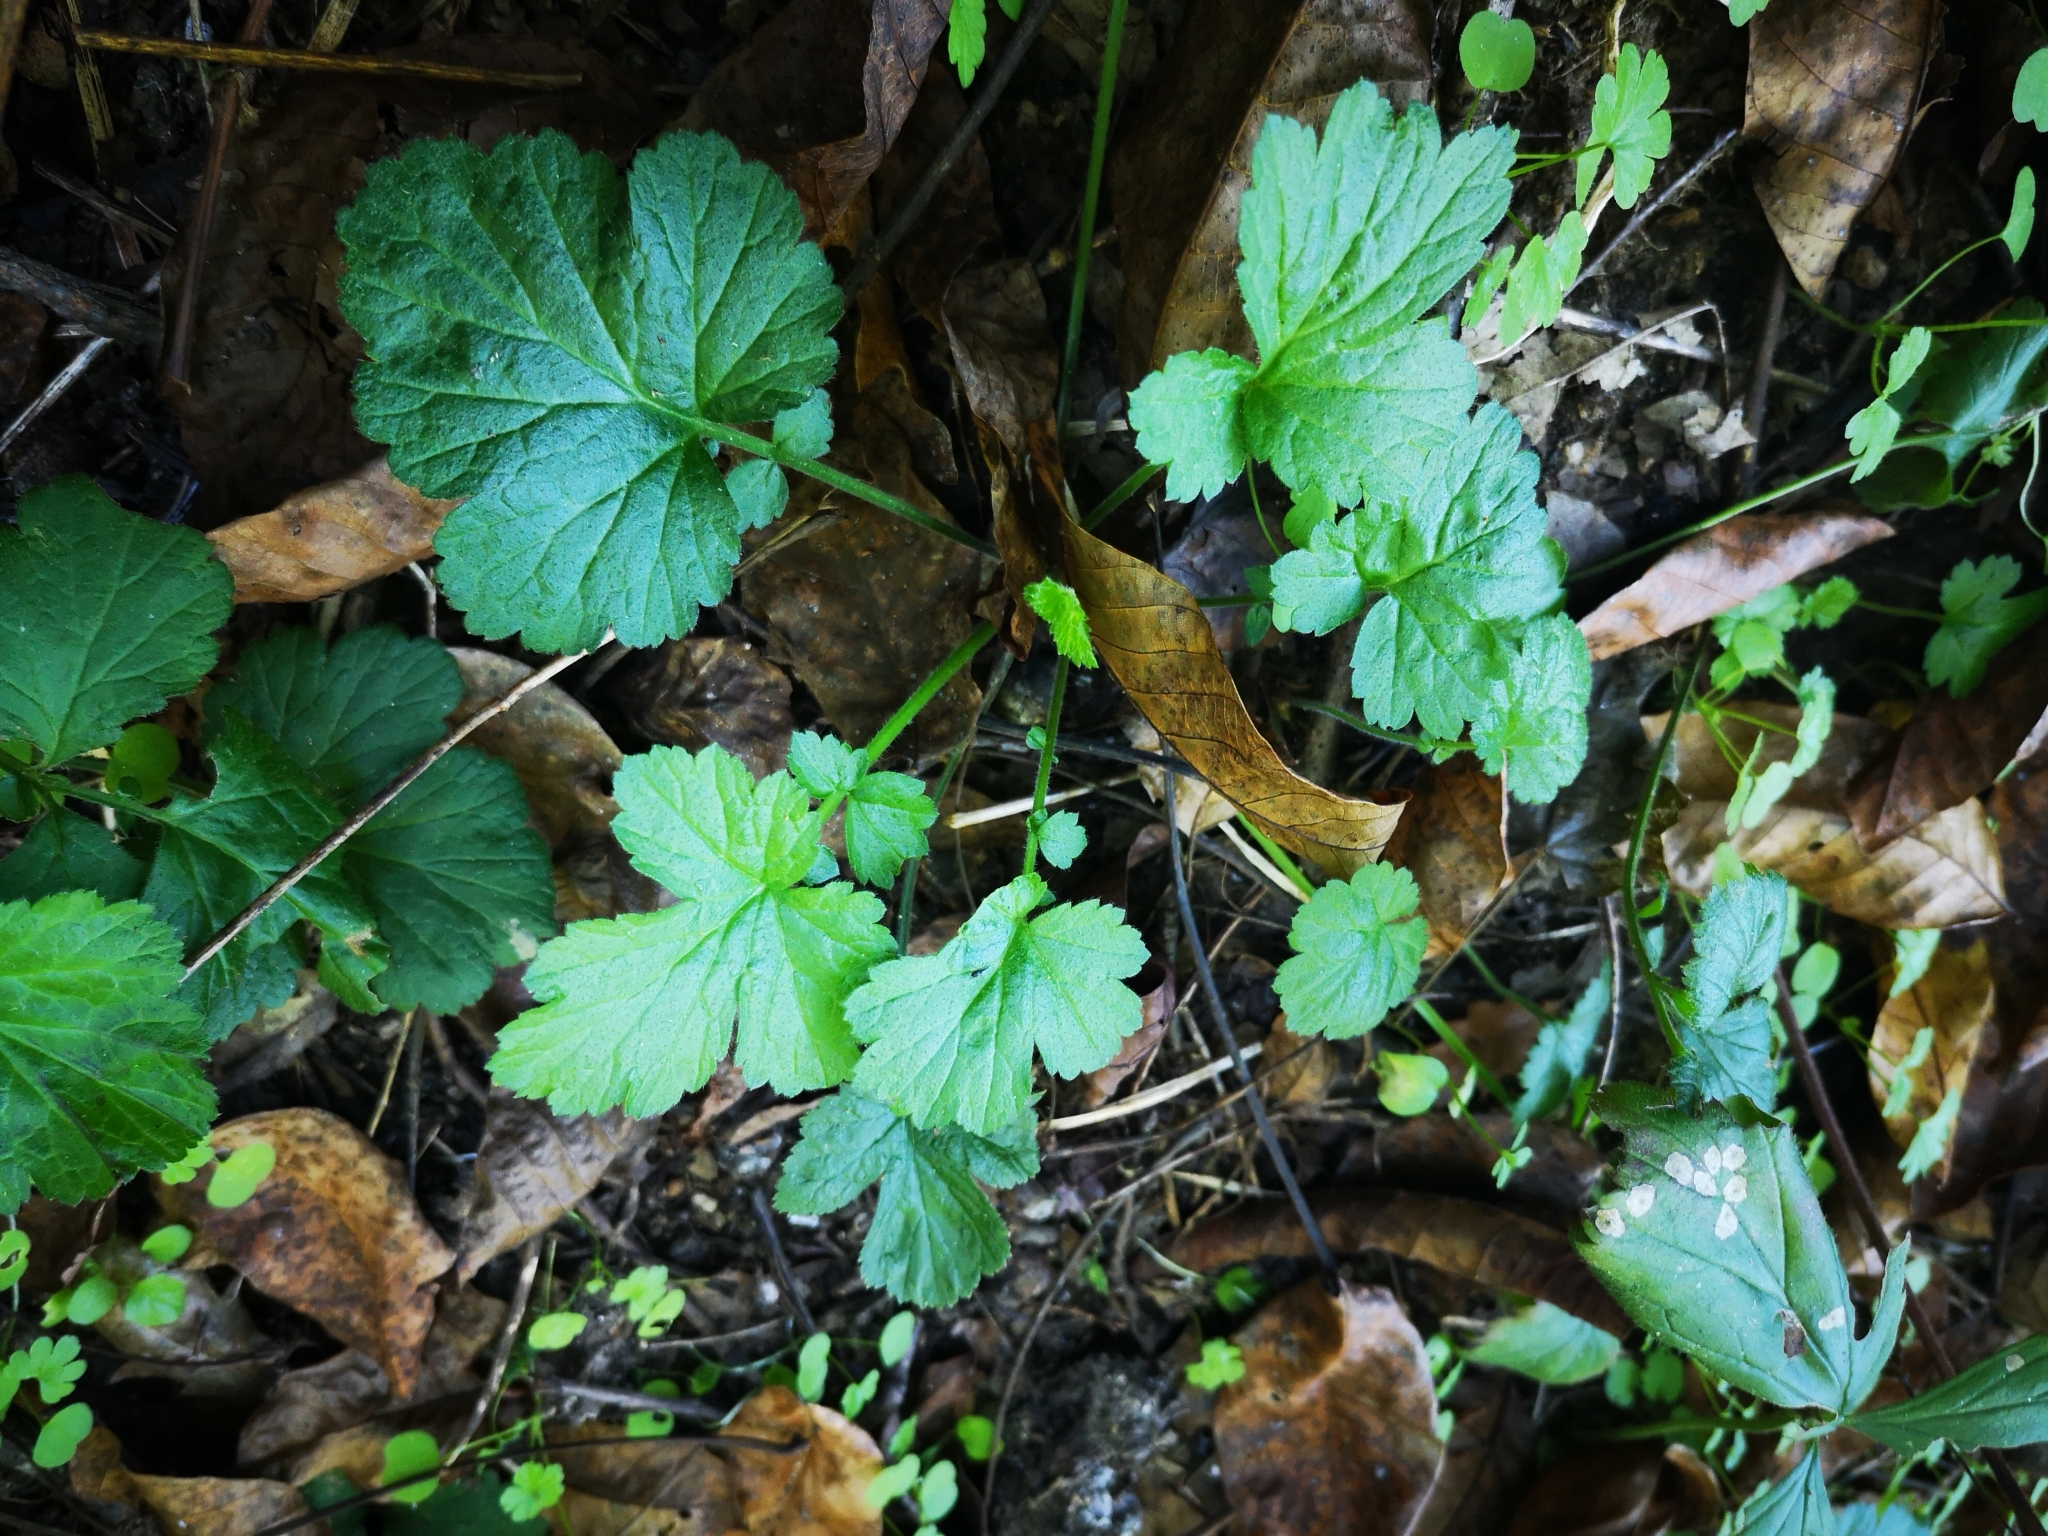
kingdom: Plantae
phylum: Tracheophyta
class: Magnoliopsida
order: Rosales
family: Rosaceae
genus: Geum
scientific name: Geum urbanum
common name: Wood avens
